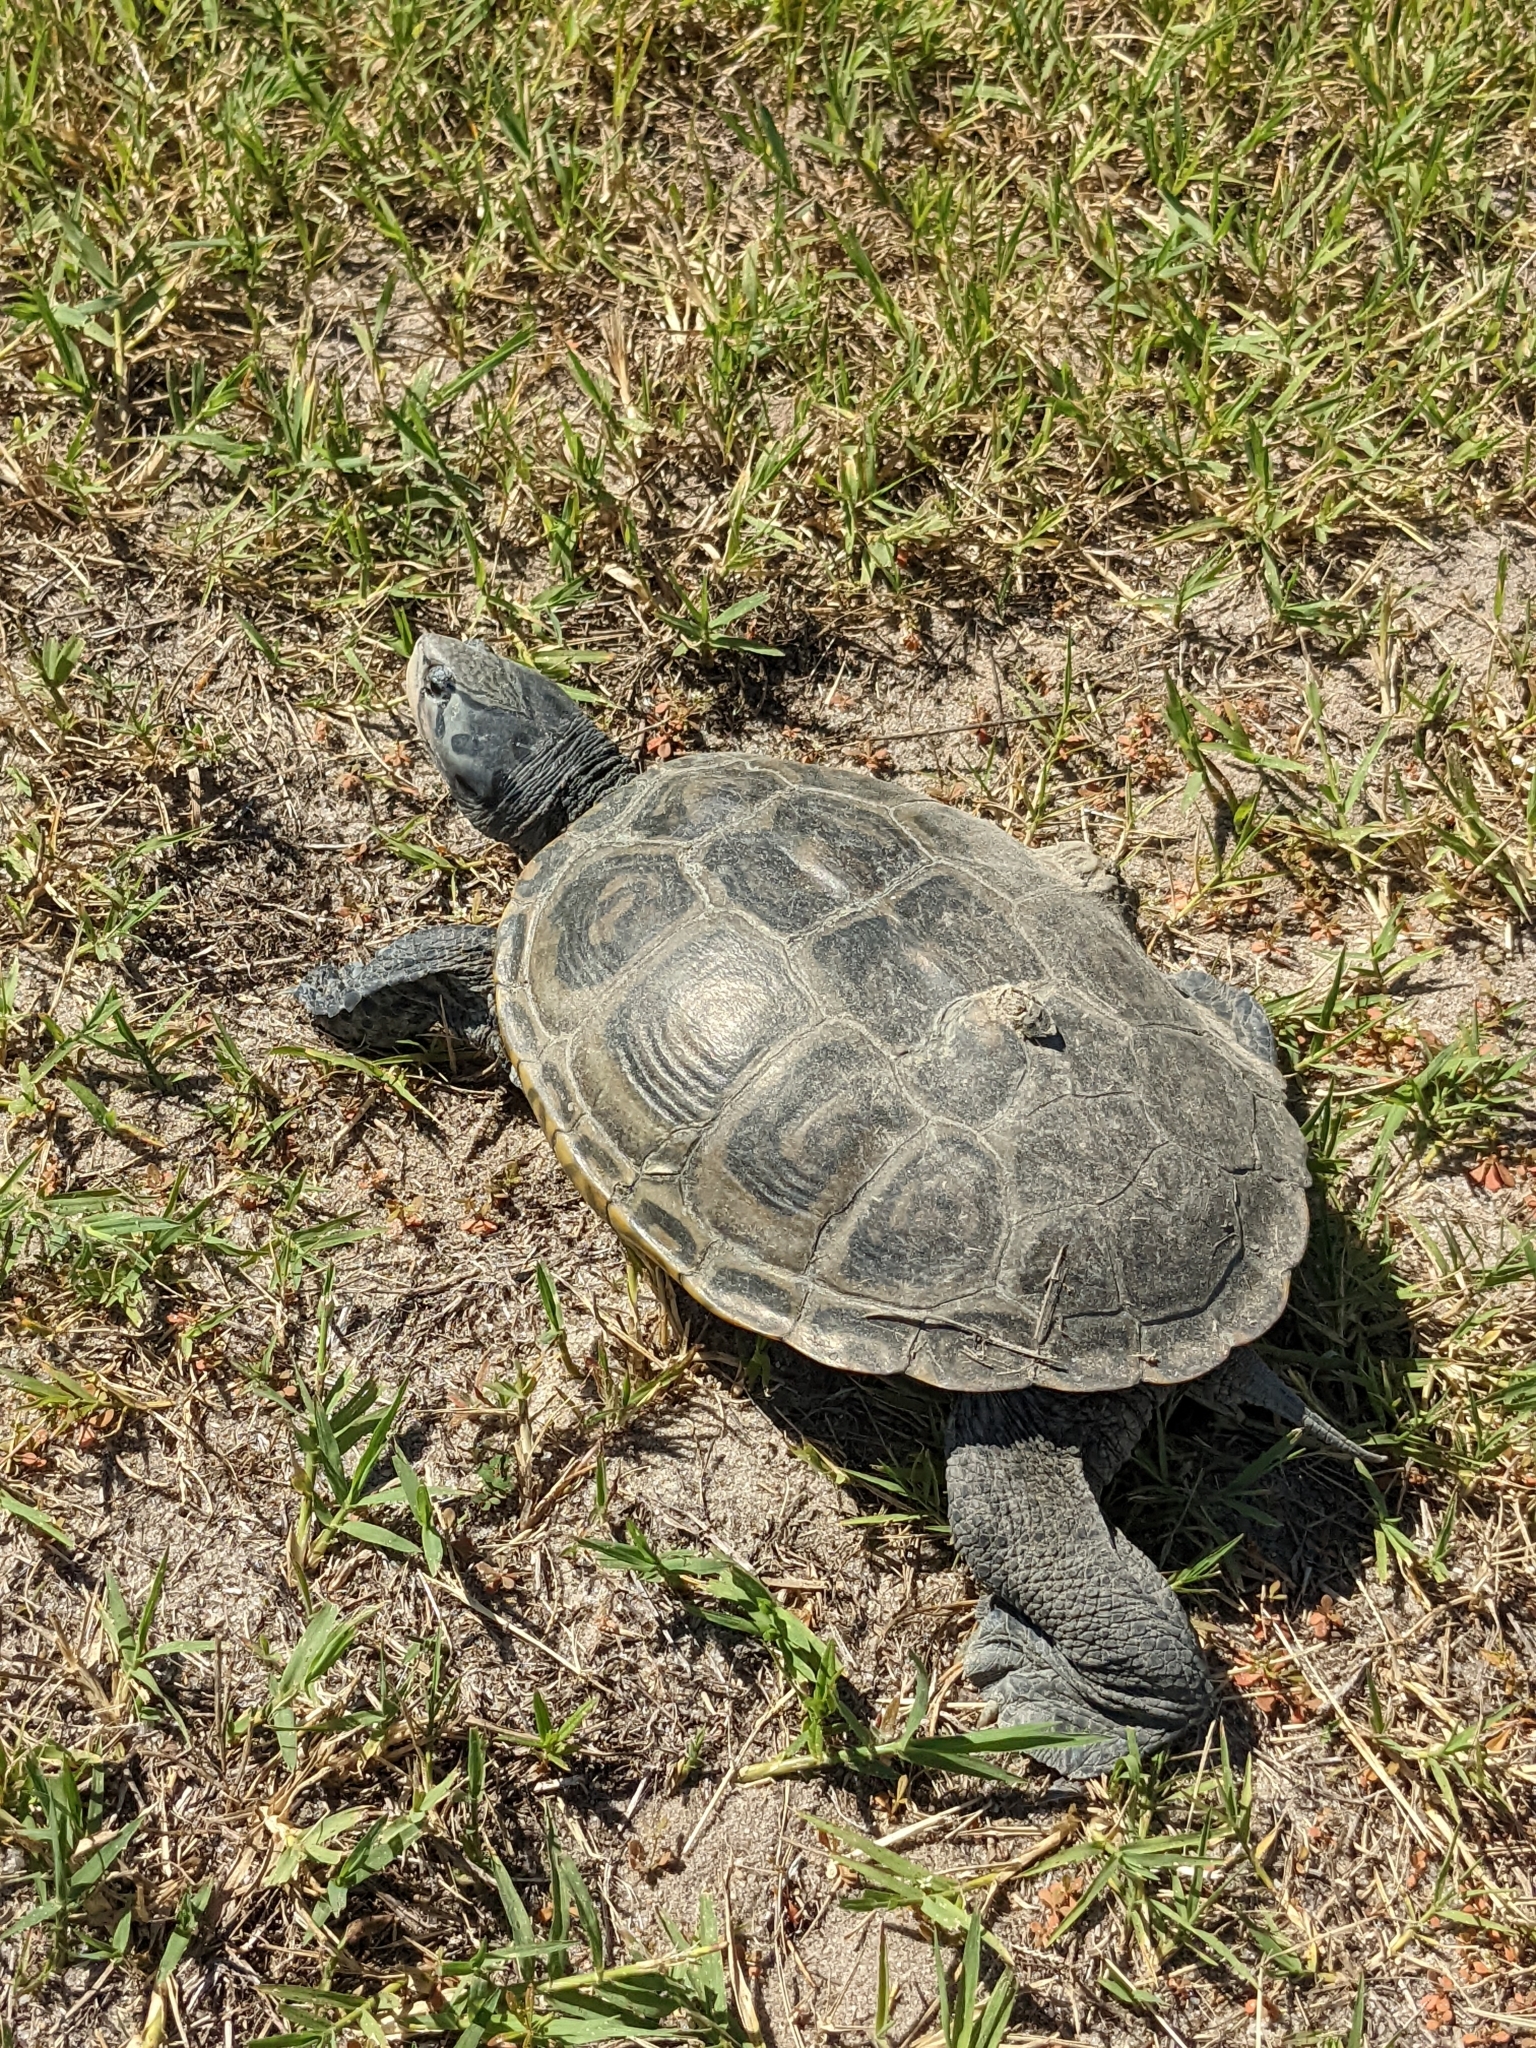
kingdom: Animalia
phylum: Chordata
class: Testudines
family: Emydidae
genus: Malaclemys
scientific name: Malaclemys terrapin
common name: Diamondback terrapin
